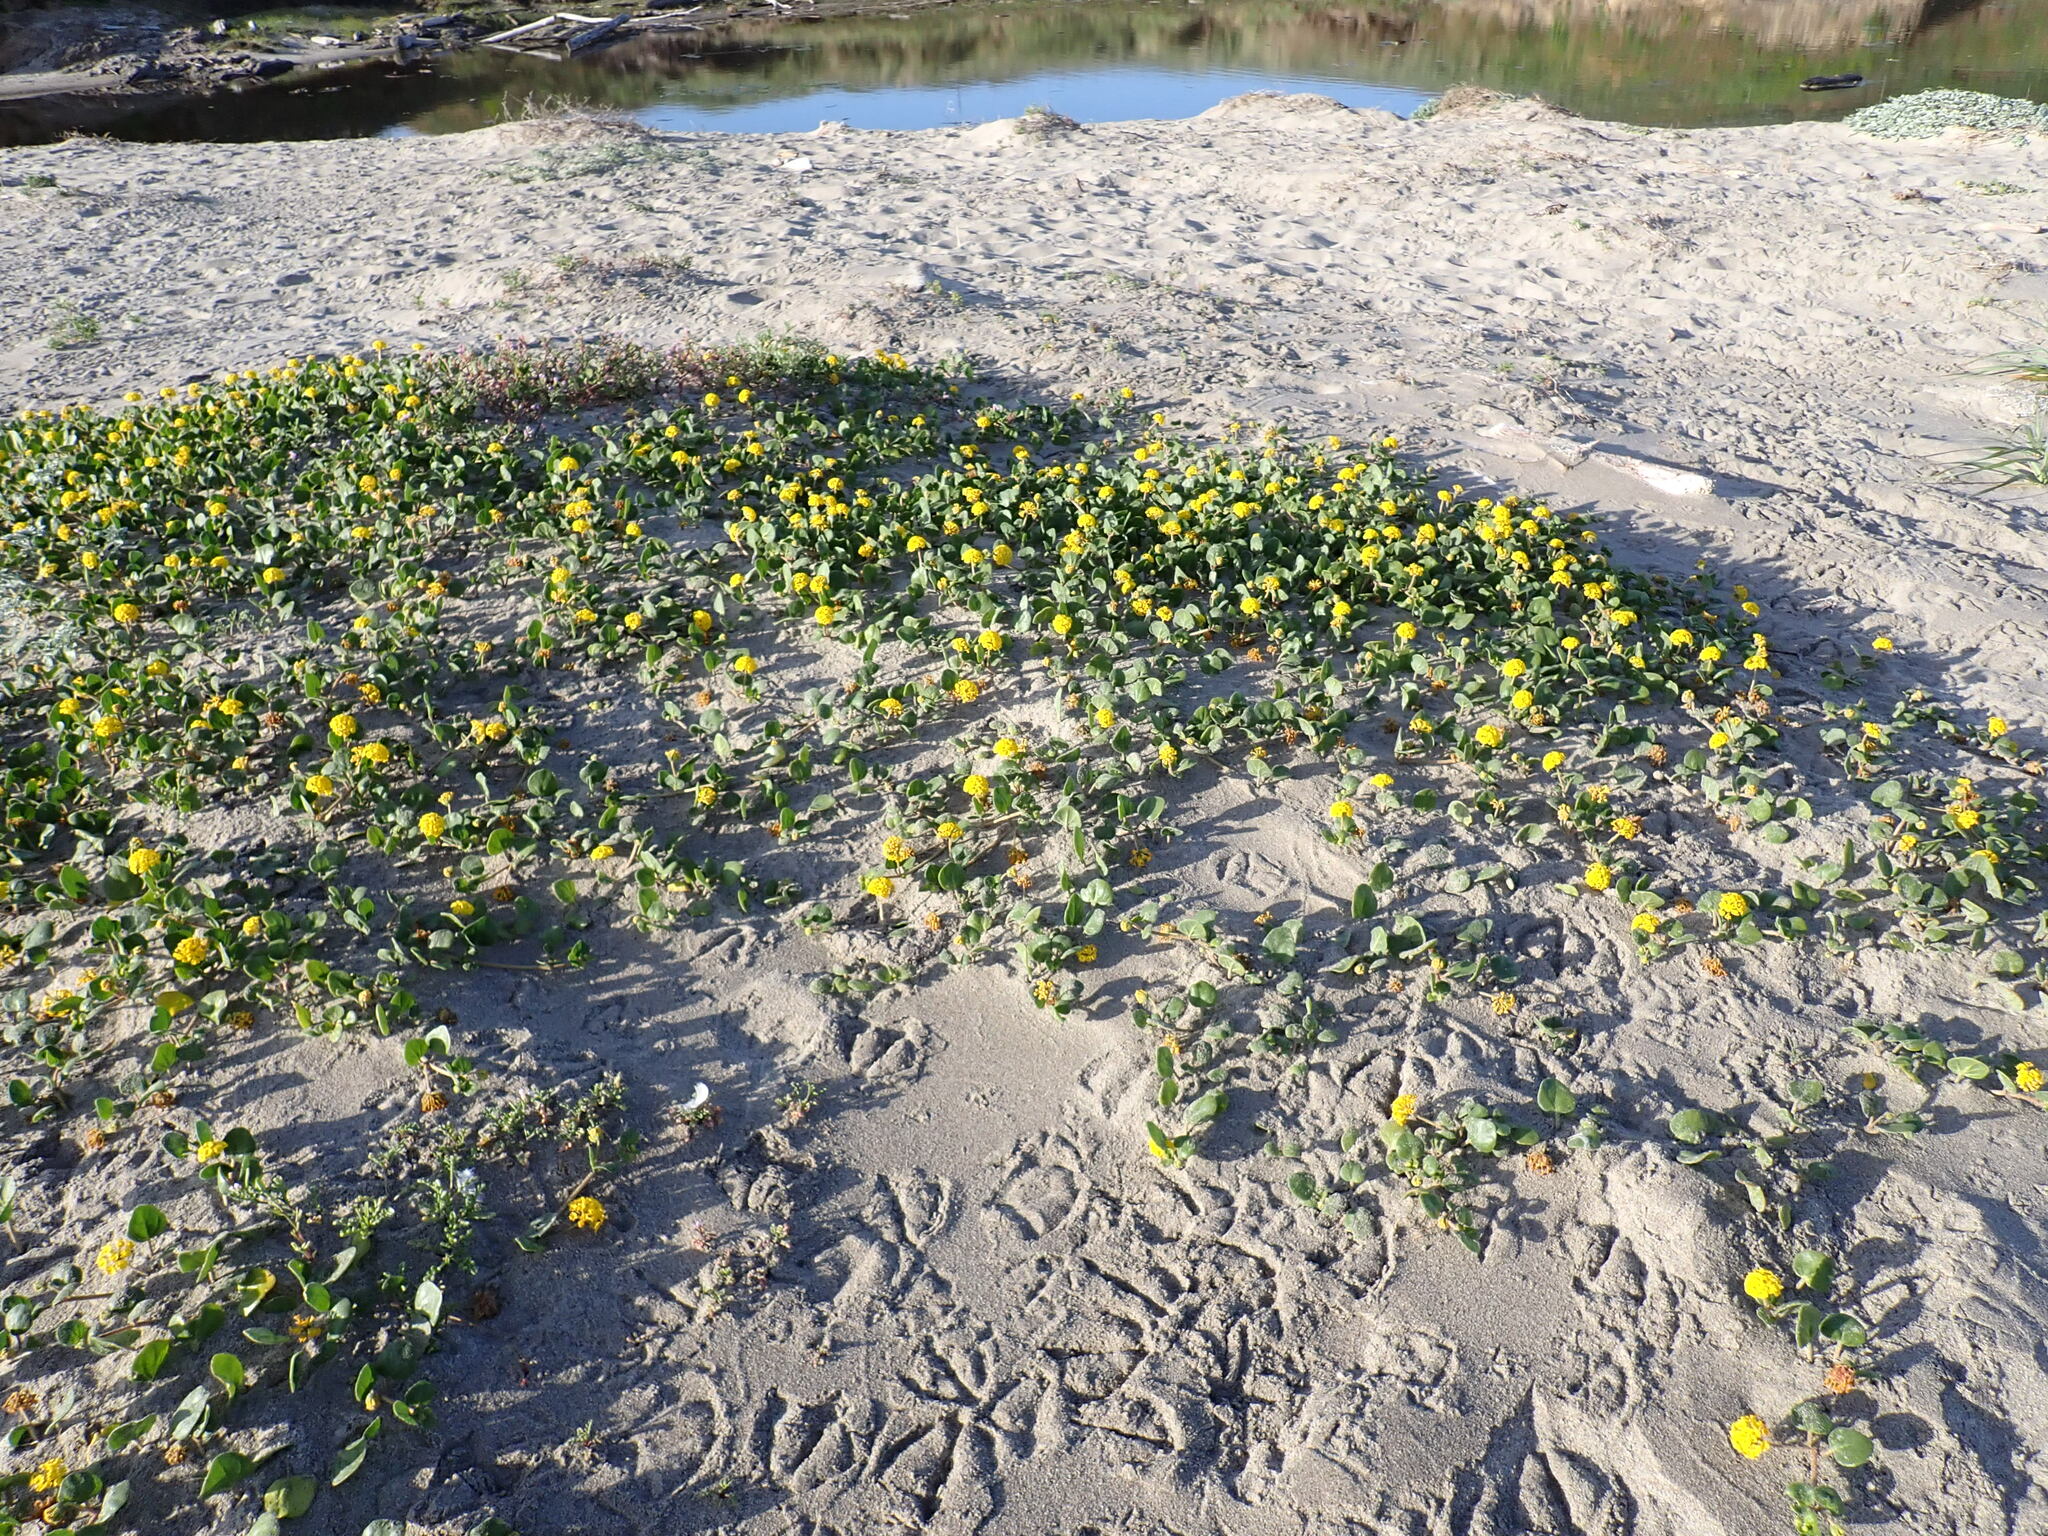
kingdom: Plantae
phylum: Tracheophyta
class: Magnoliopsida
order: Caryophyllales
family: Nyctaginaceae
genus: Abronia
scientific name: Abronia latifolia
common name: Yellow sand-verbena
